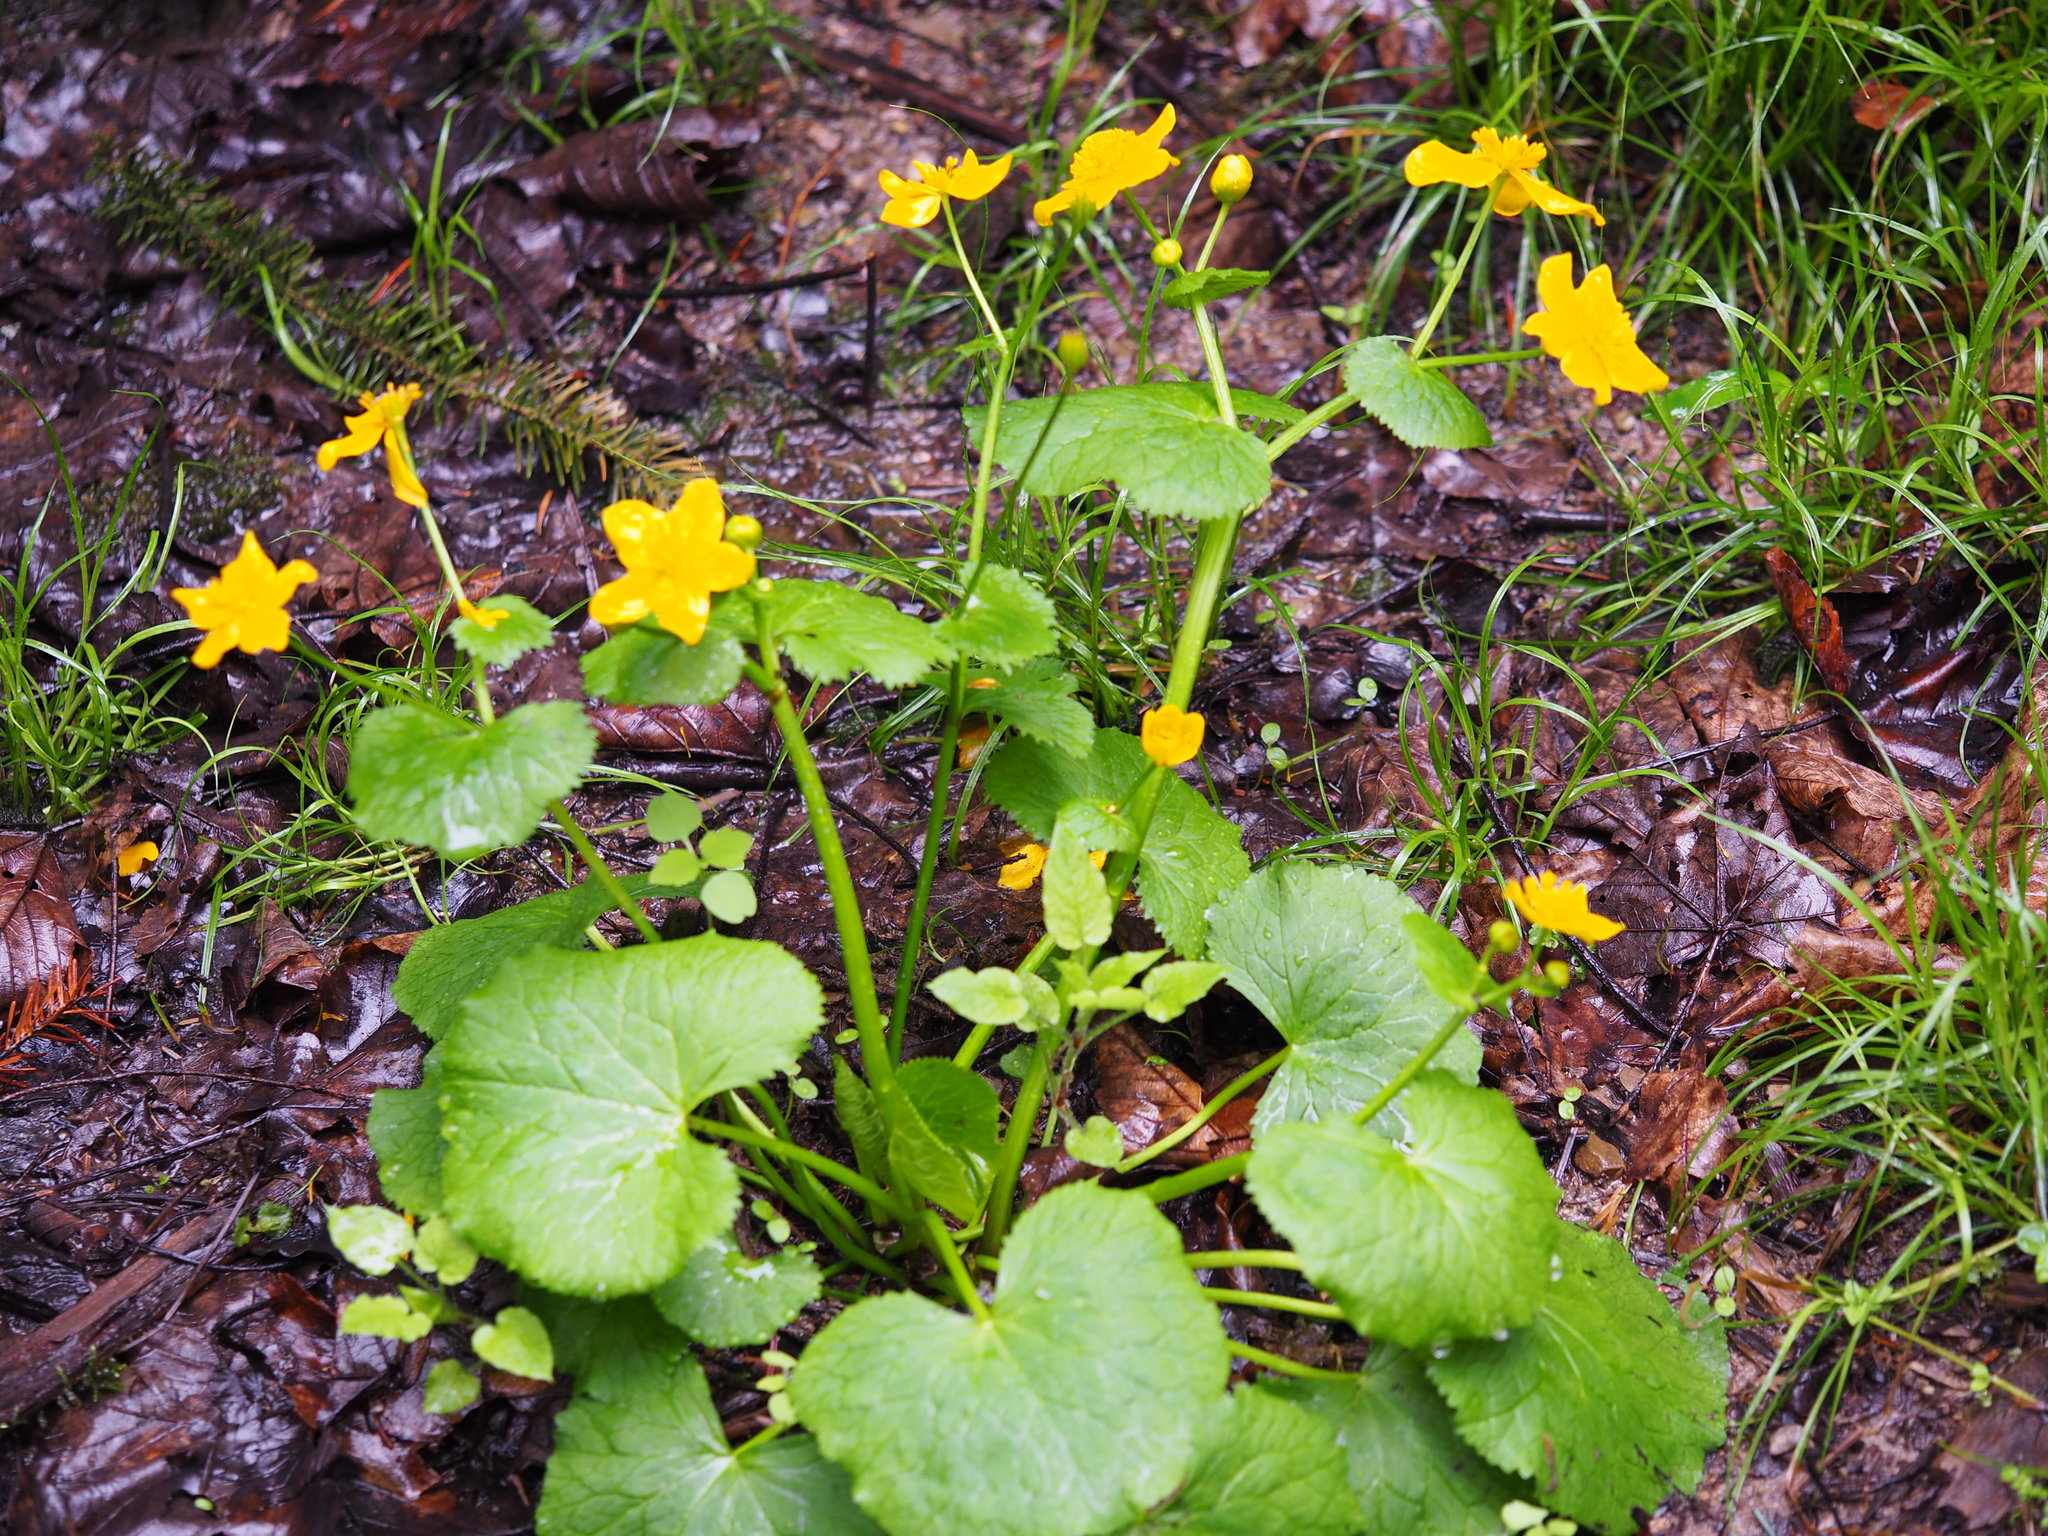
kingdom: Plantae
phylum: Tracheophyta
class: Magnoliopsida
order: Ranunculales
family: Ranunculaceae
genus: Caltha
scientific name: Caltha palustris
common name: Marsh marigold
